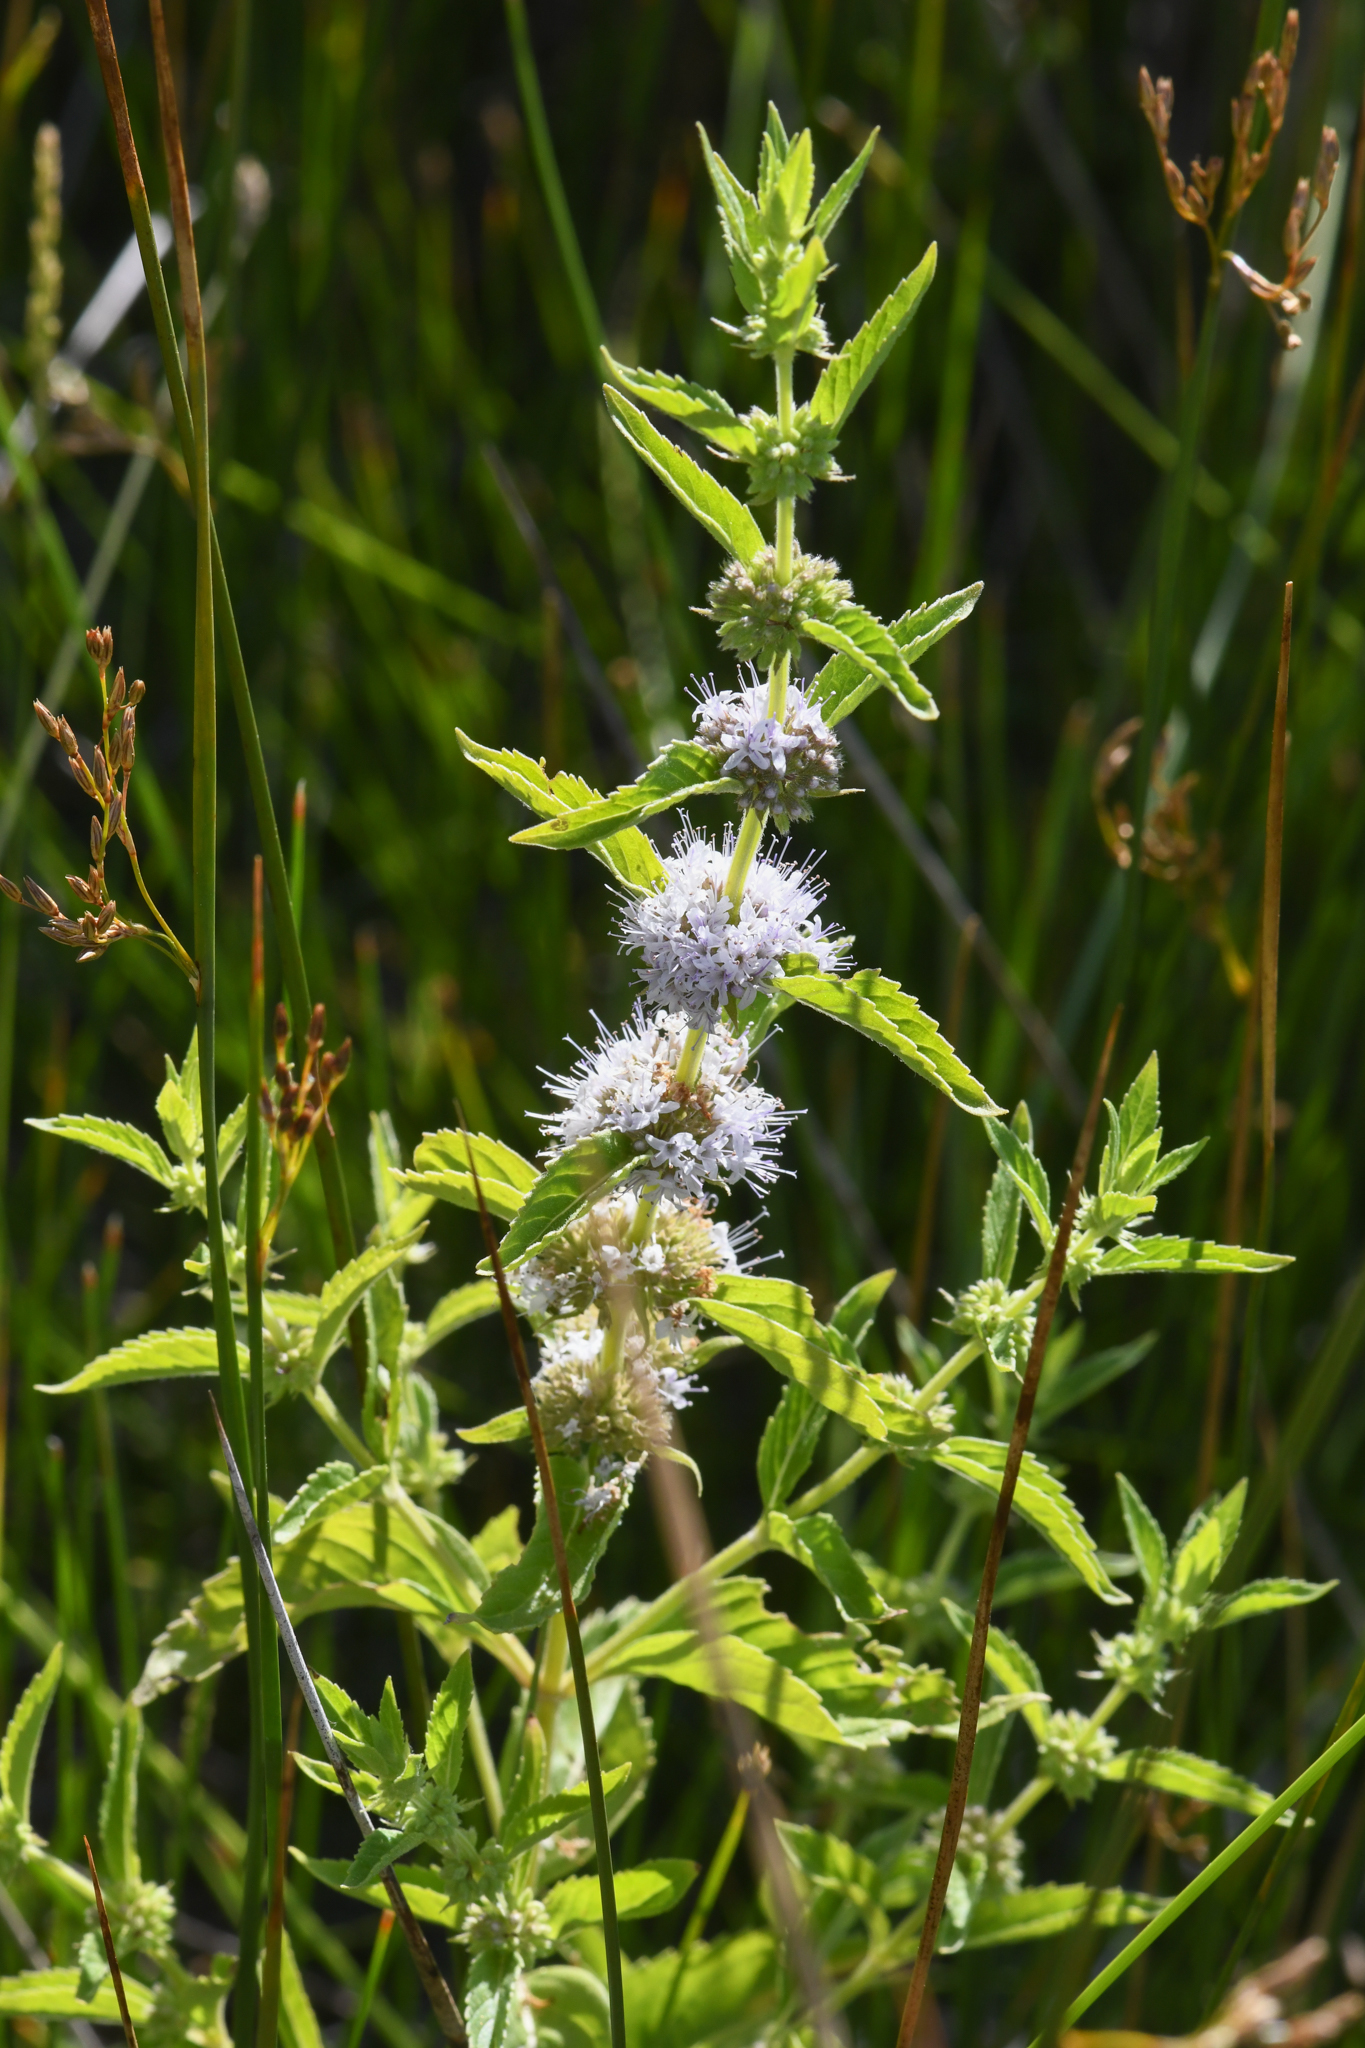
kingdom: Plantae
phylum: Tracheophyta
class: Magnoliopsida
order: Lamiales
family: Lamiaceae
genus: Mentha
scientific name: Mentha canadensis
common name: American corn mint
